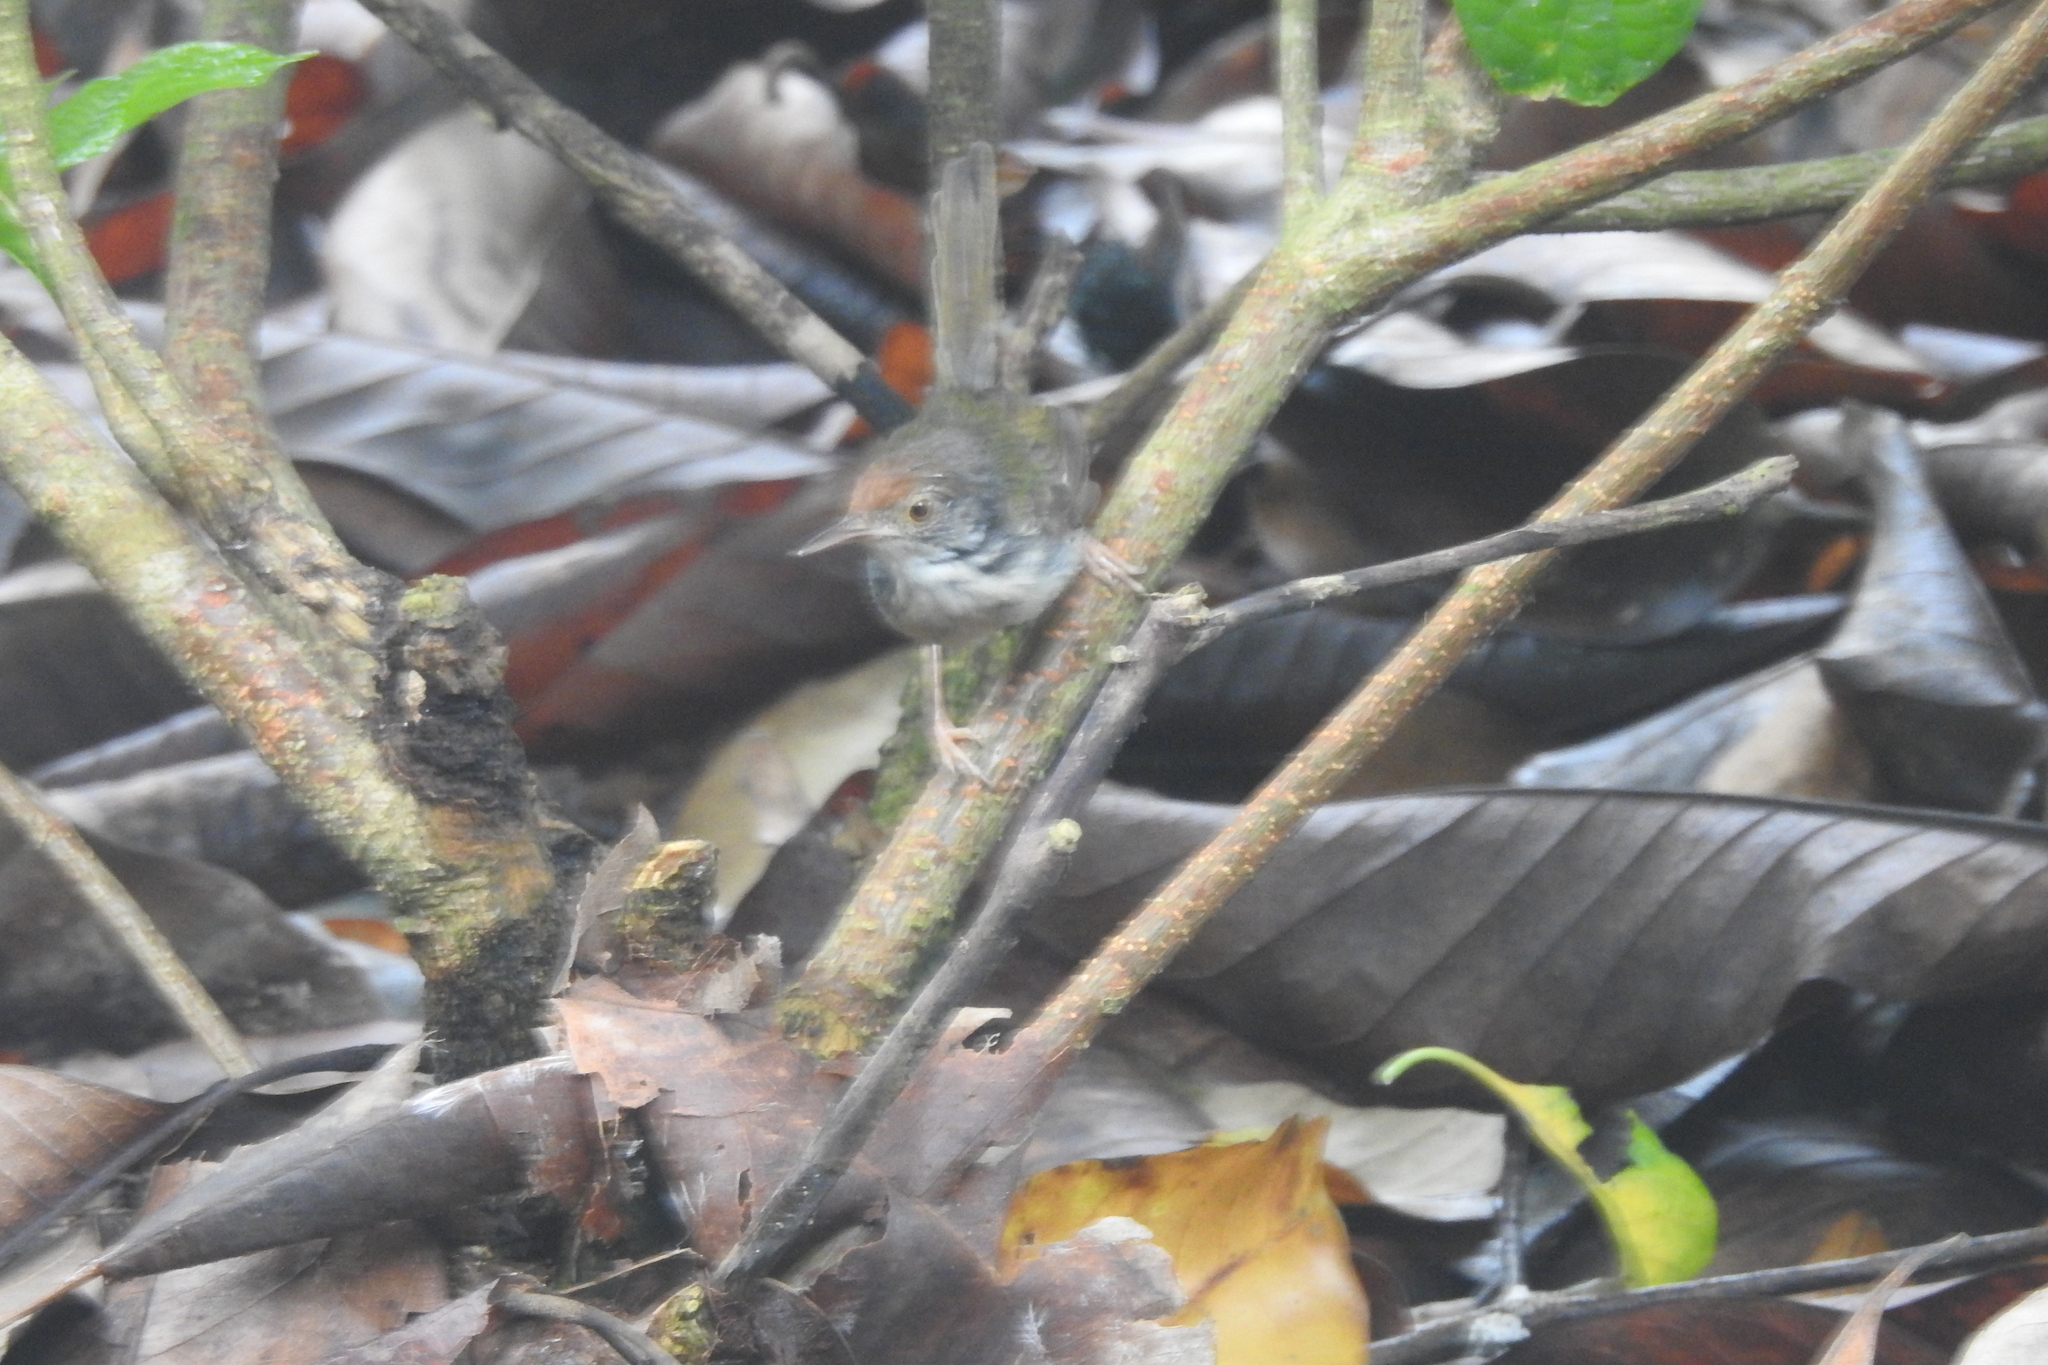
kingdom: Animalia
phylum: Chordata
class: Aves
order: Passeriformes
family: Cisticolidae
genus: Orthotomus
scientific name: Orthotomus sutorius
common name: Common tailorbird
